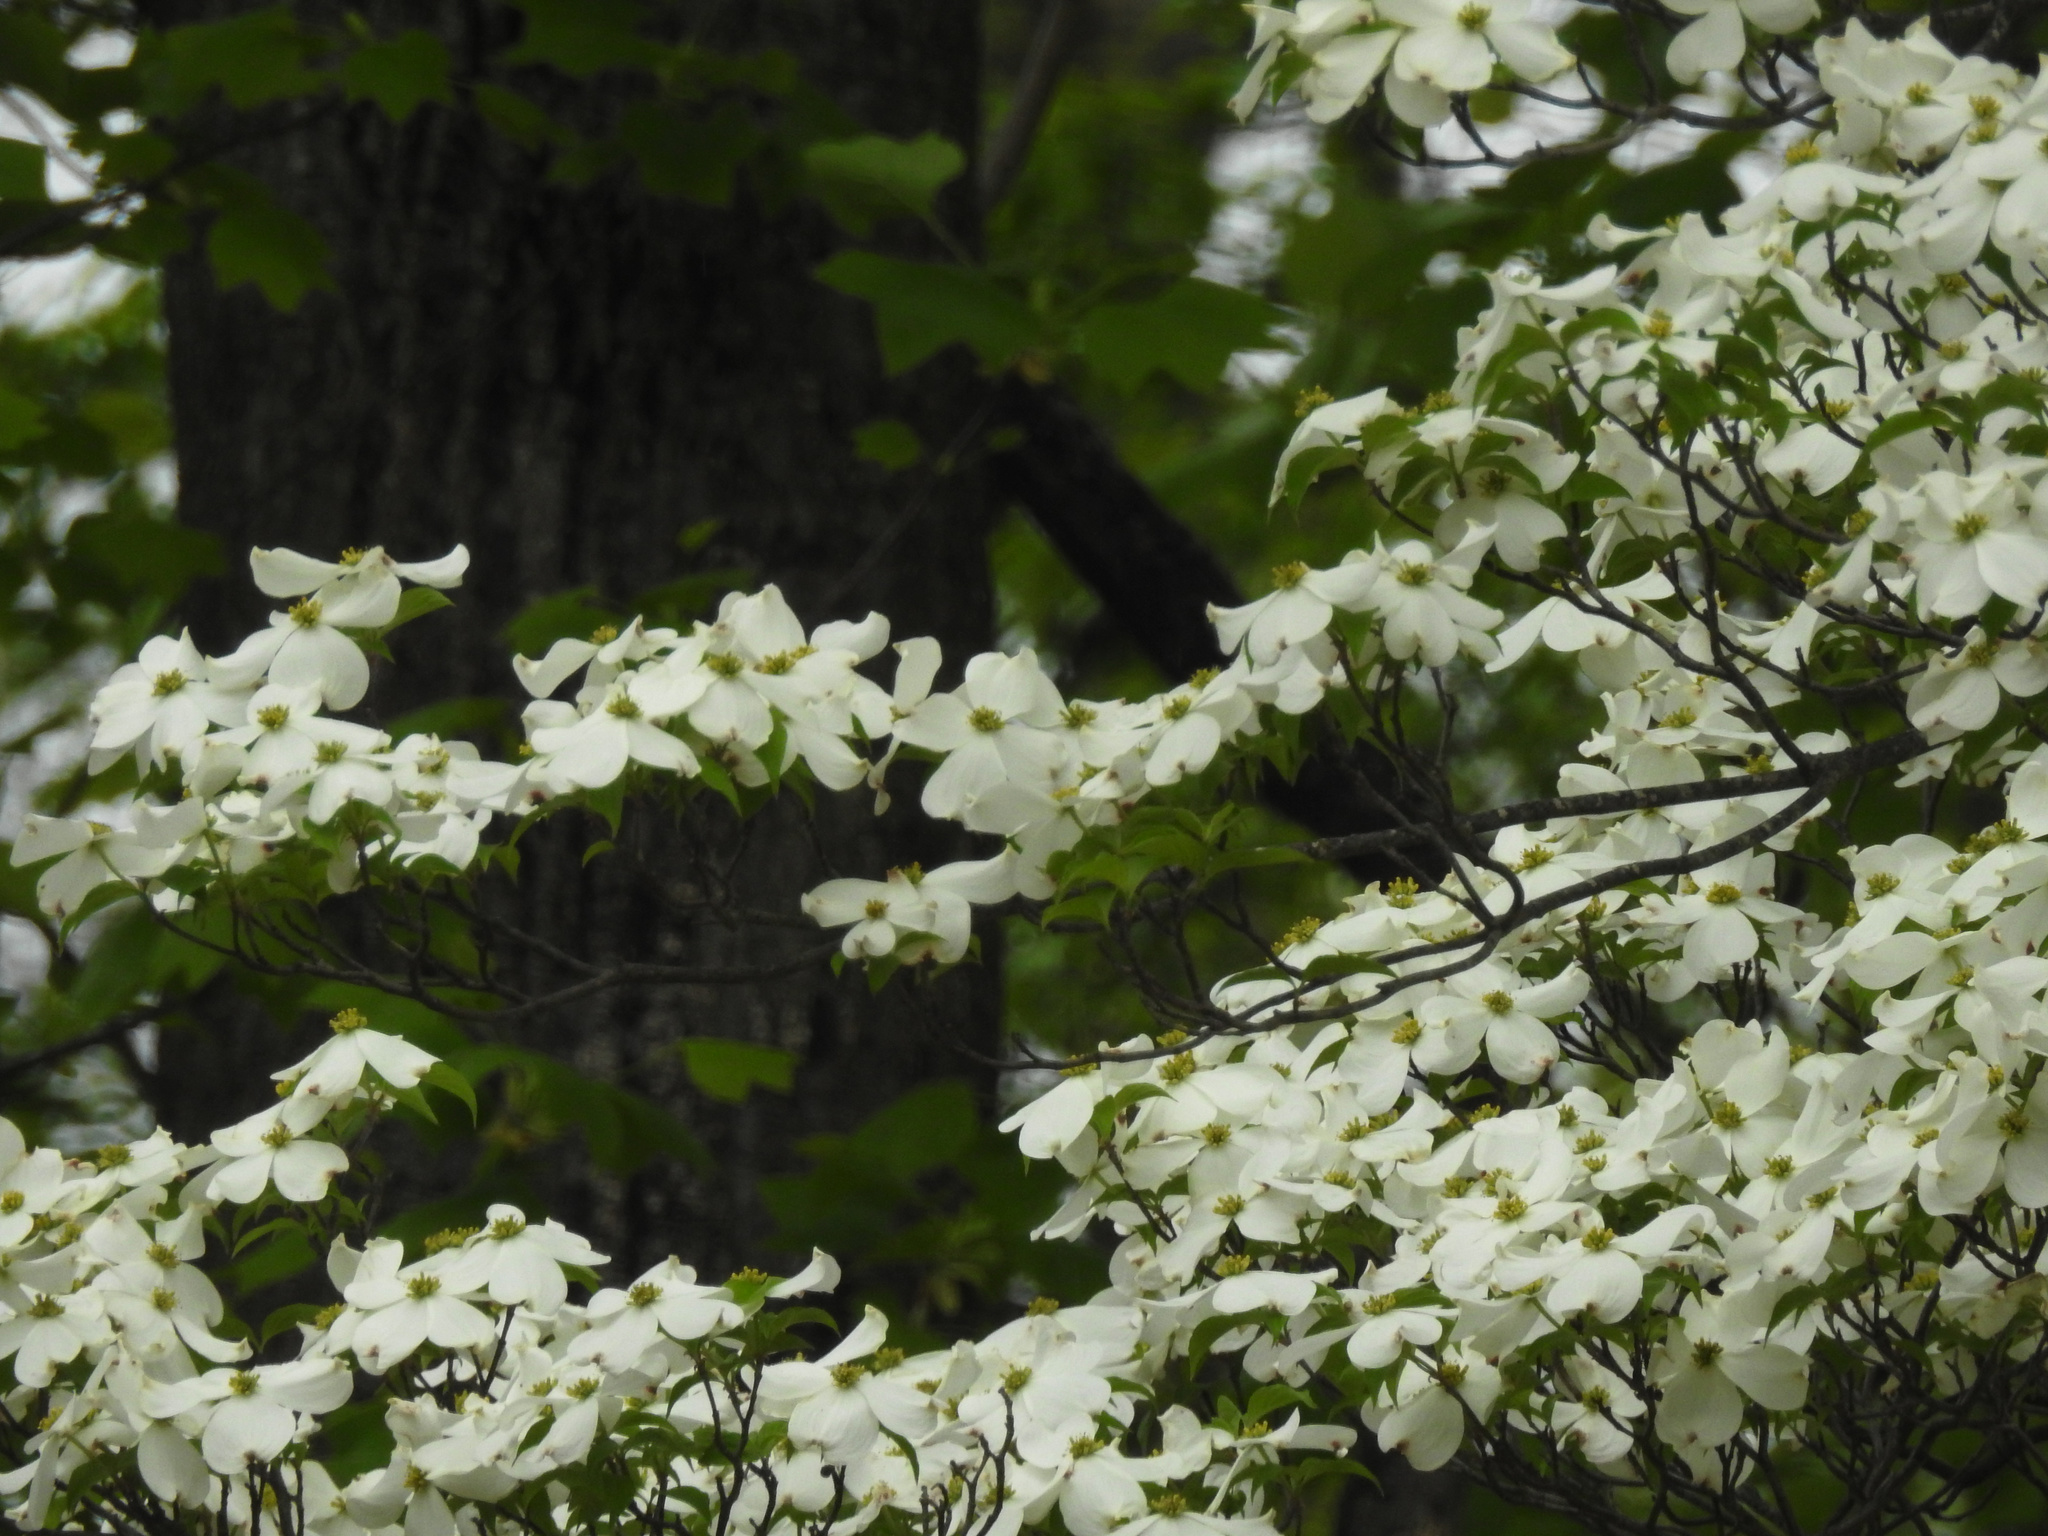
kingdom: Plantae
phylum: Tracheophyta
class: Magnoliopsida
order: Cornales
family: Cornaceae
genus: Cornus
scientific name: Cornus florida
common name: Flowering dogwood
